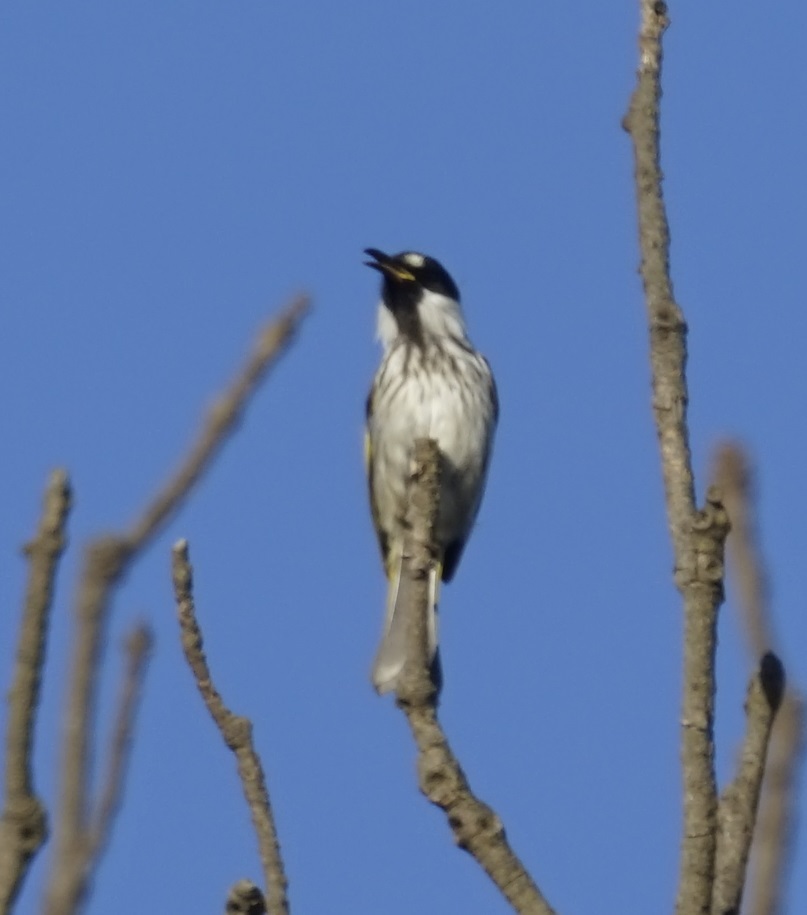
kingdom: Animalia
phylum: Chordata
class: Aves
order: Passeriformes
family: Meliphagidae
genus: Phylidonyris
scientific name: Phylidonyris niger
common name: White-cheeked honeyeater
